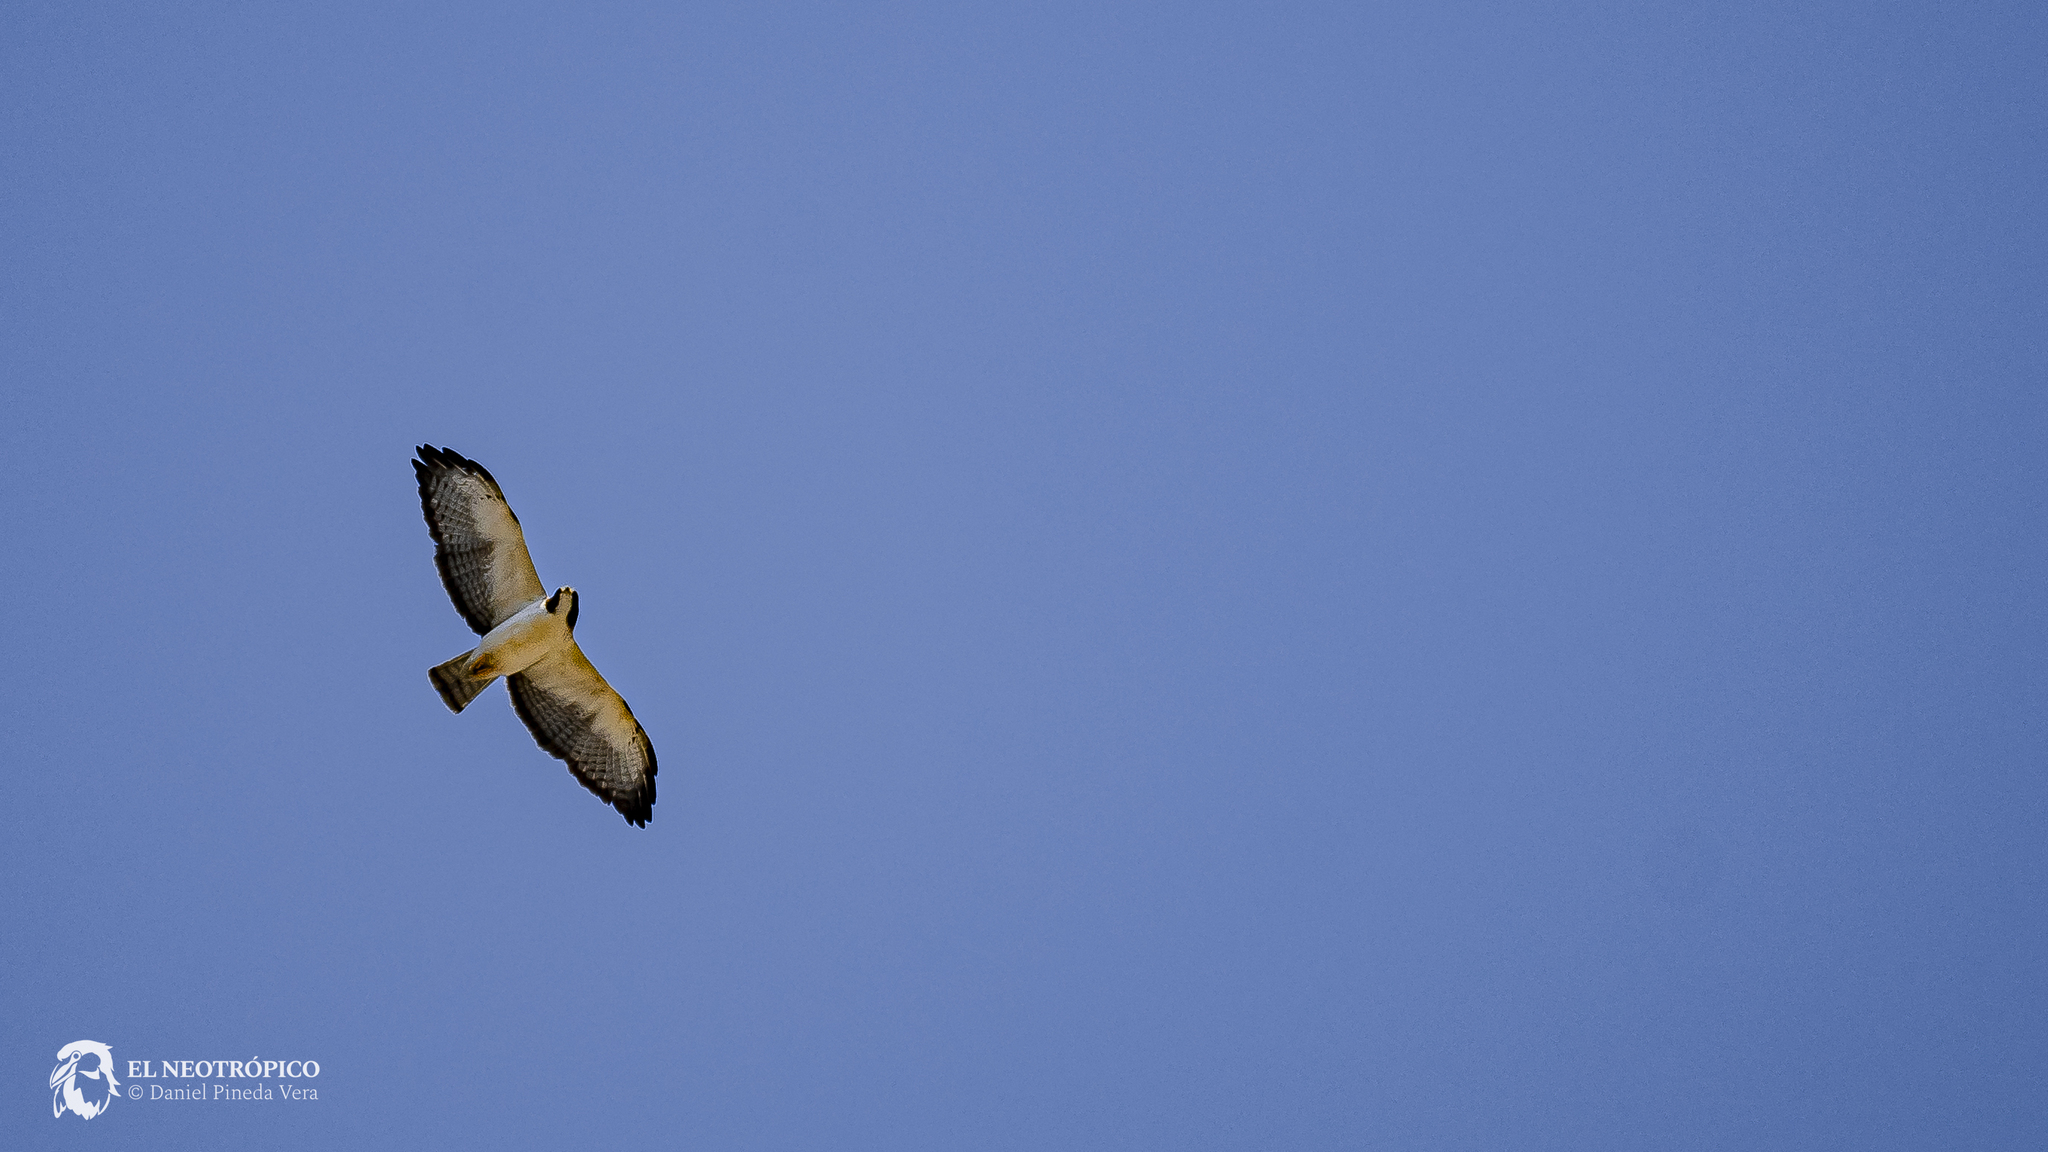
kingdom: Animalia
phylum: Chordata
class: Aves
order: Accipitriformes
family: Accipitridae
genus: Buteo
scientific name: Buteo brachyurus
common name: Short-tailed hawk
